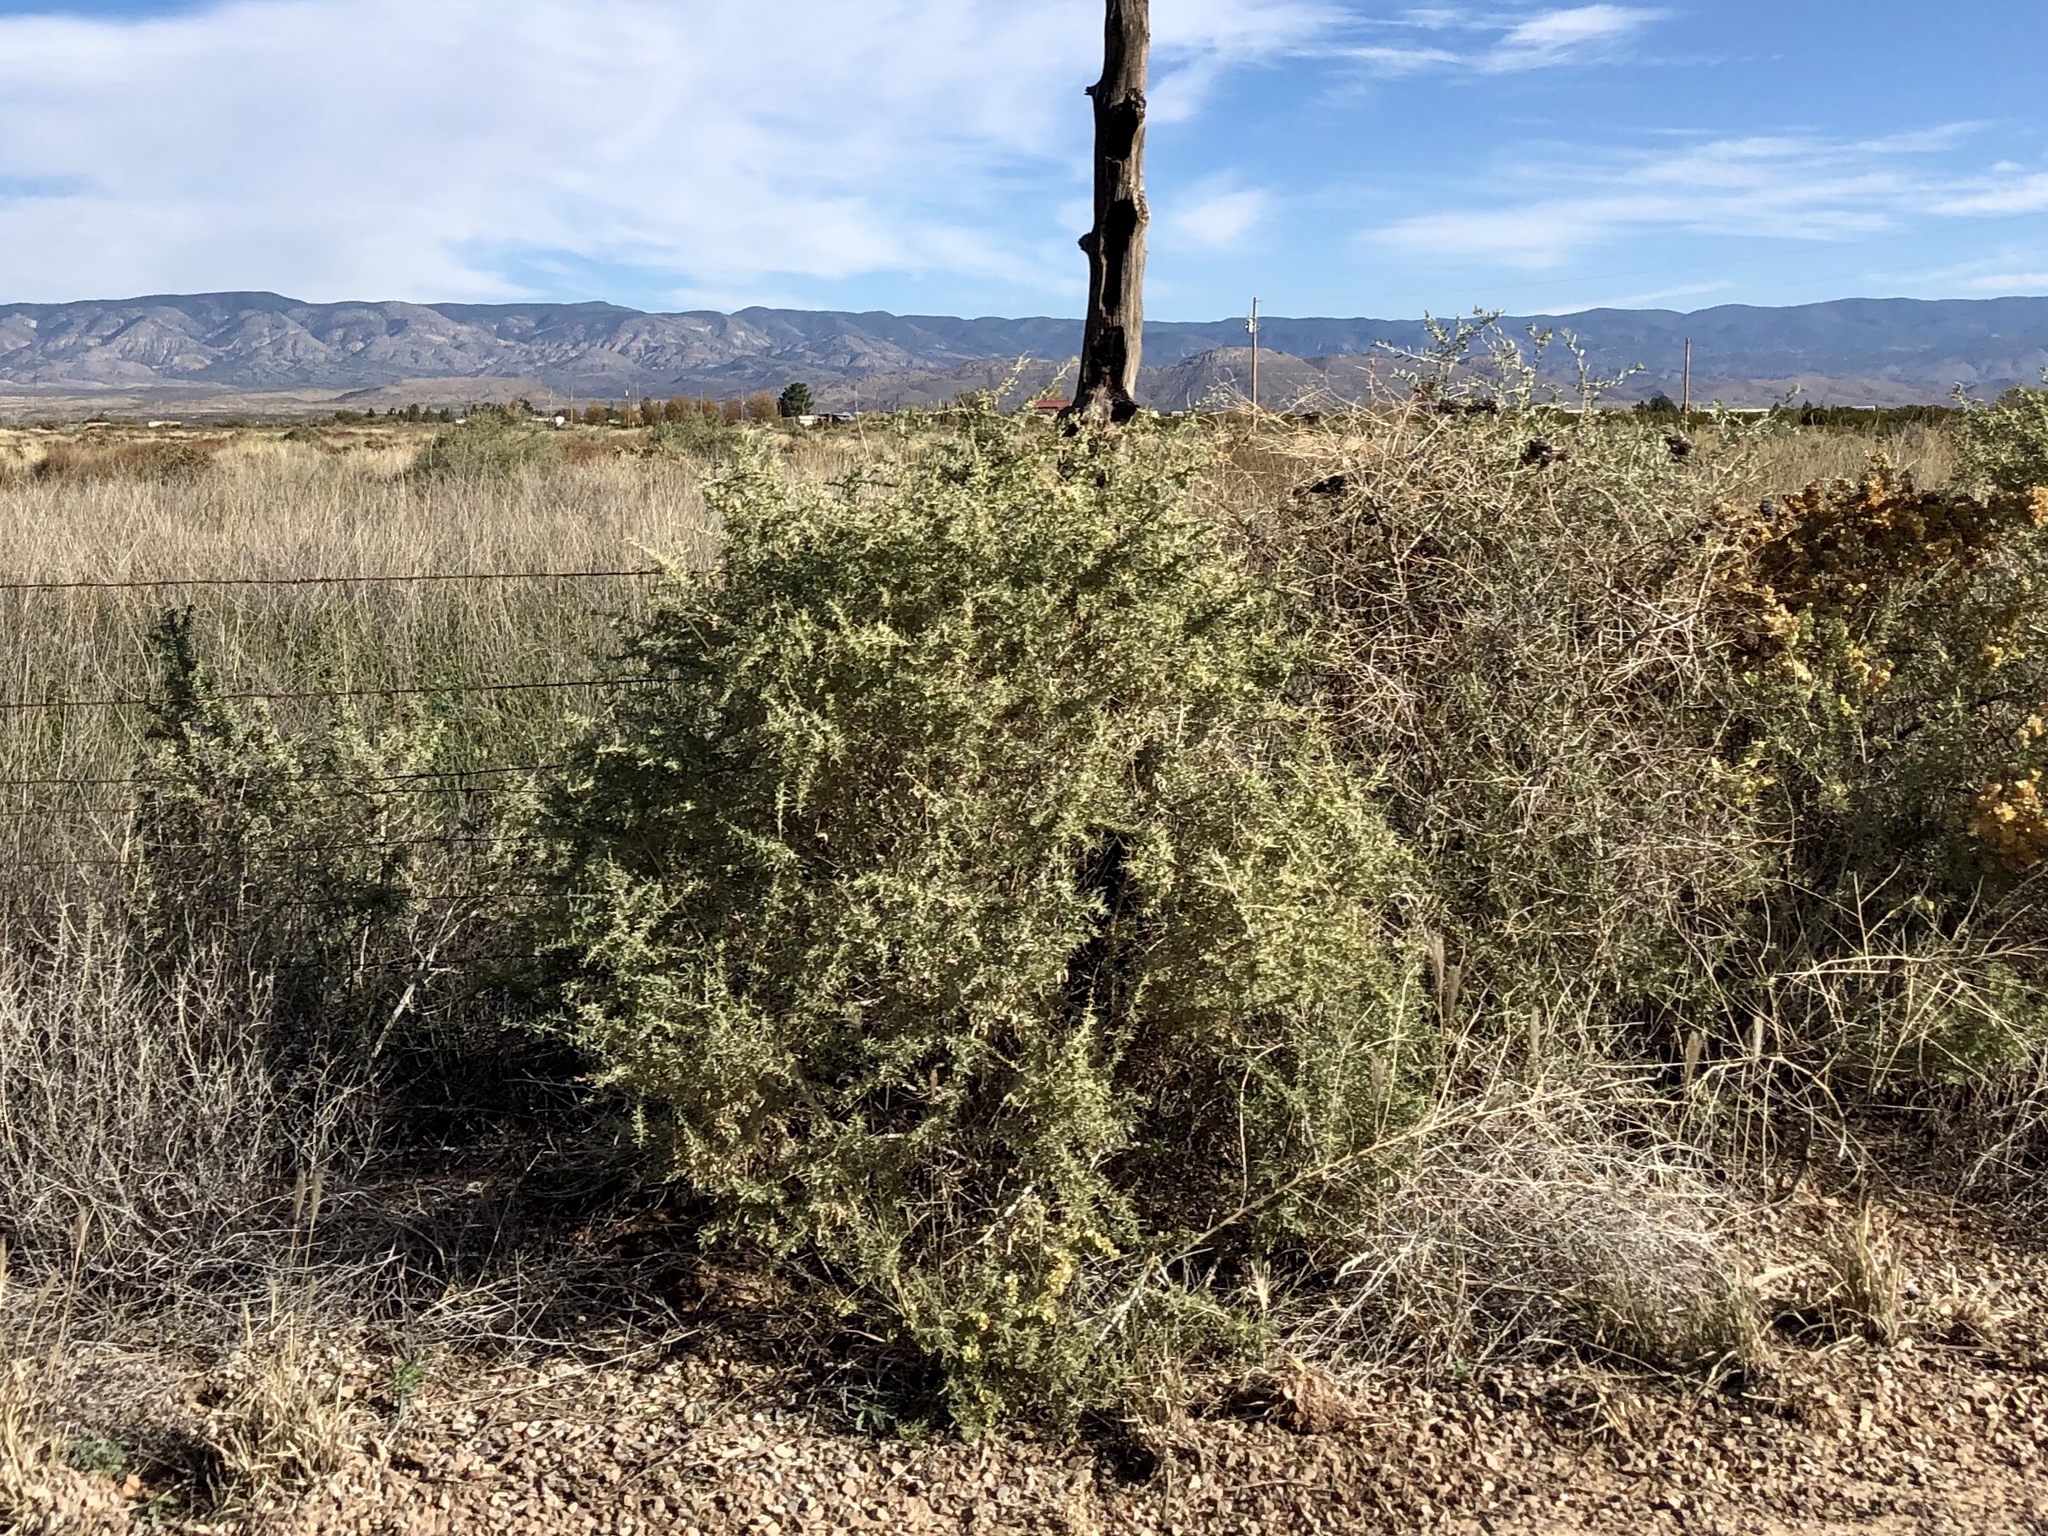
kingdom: Plantae
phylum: Tracheophyta
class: Magnoliopsida
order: Caryophyllales
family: Amaranthaceae
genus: Atriplex
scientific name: Atriplex canescens
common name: Four-wing saltbush
